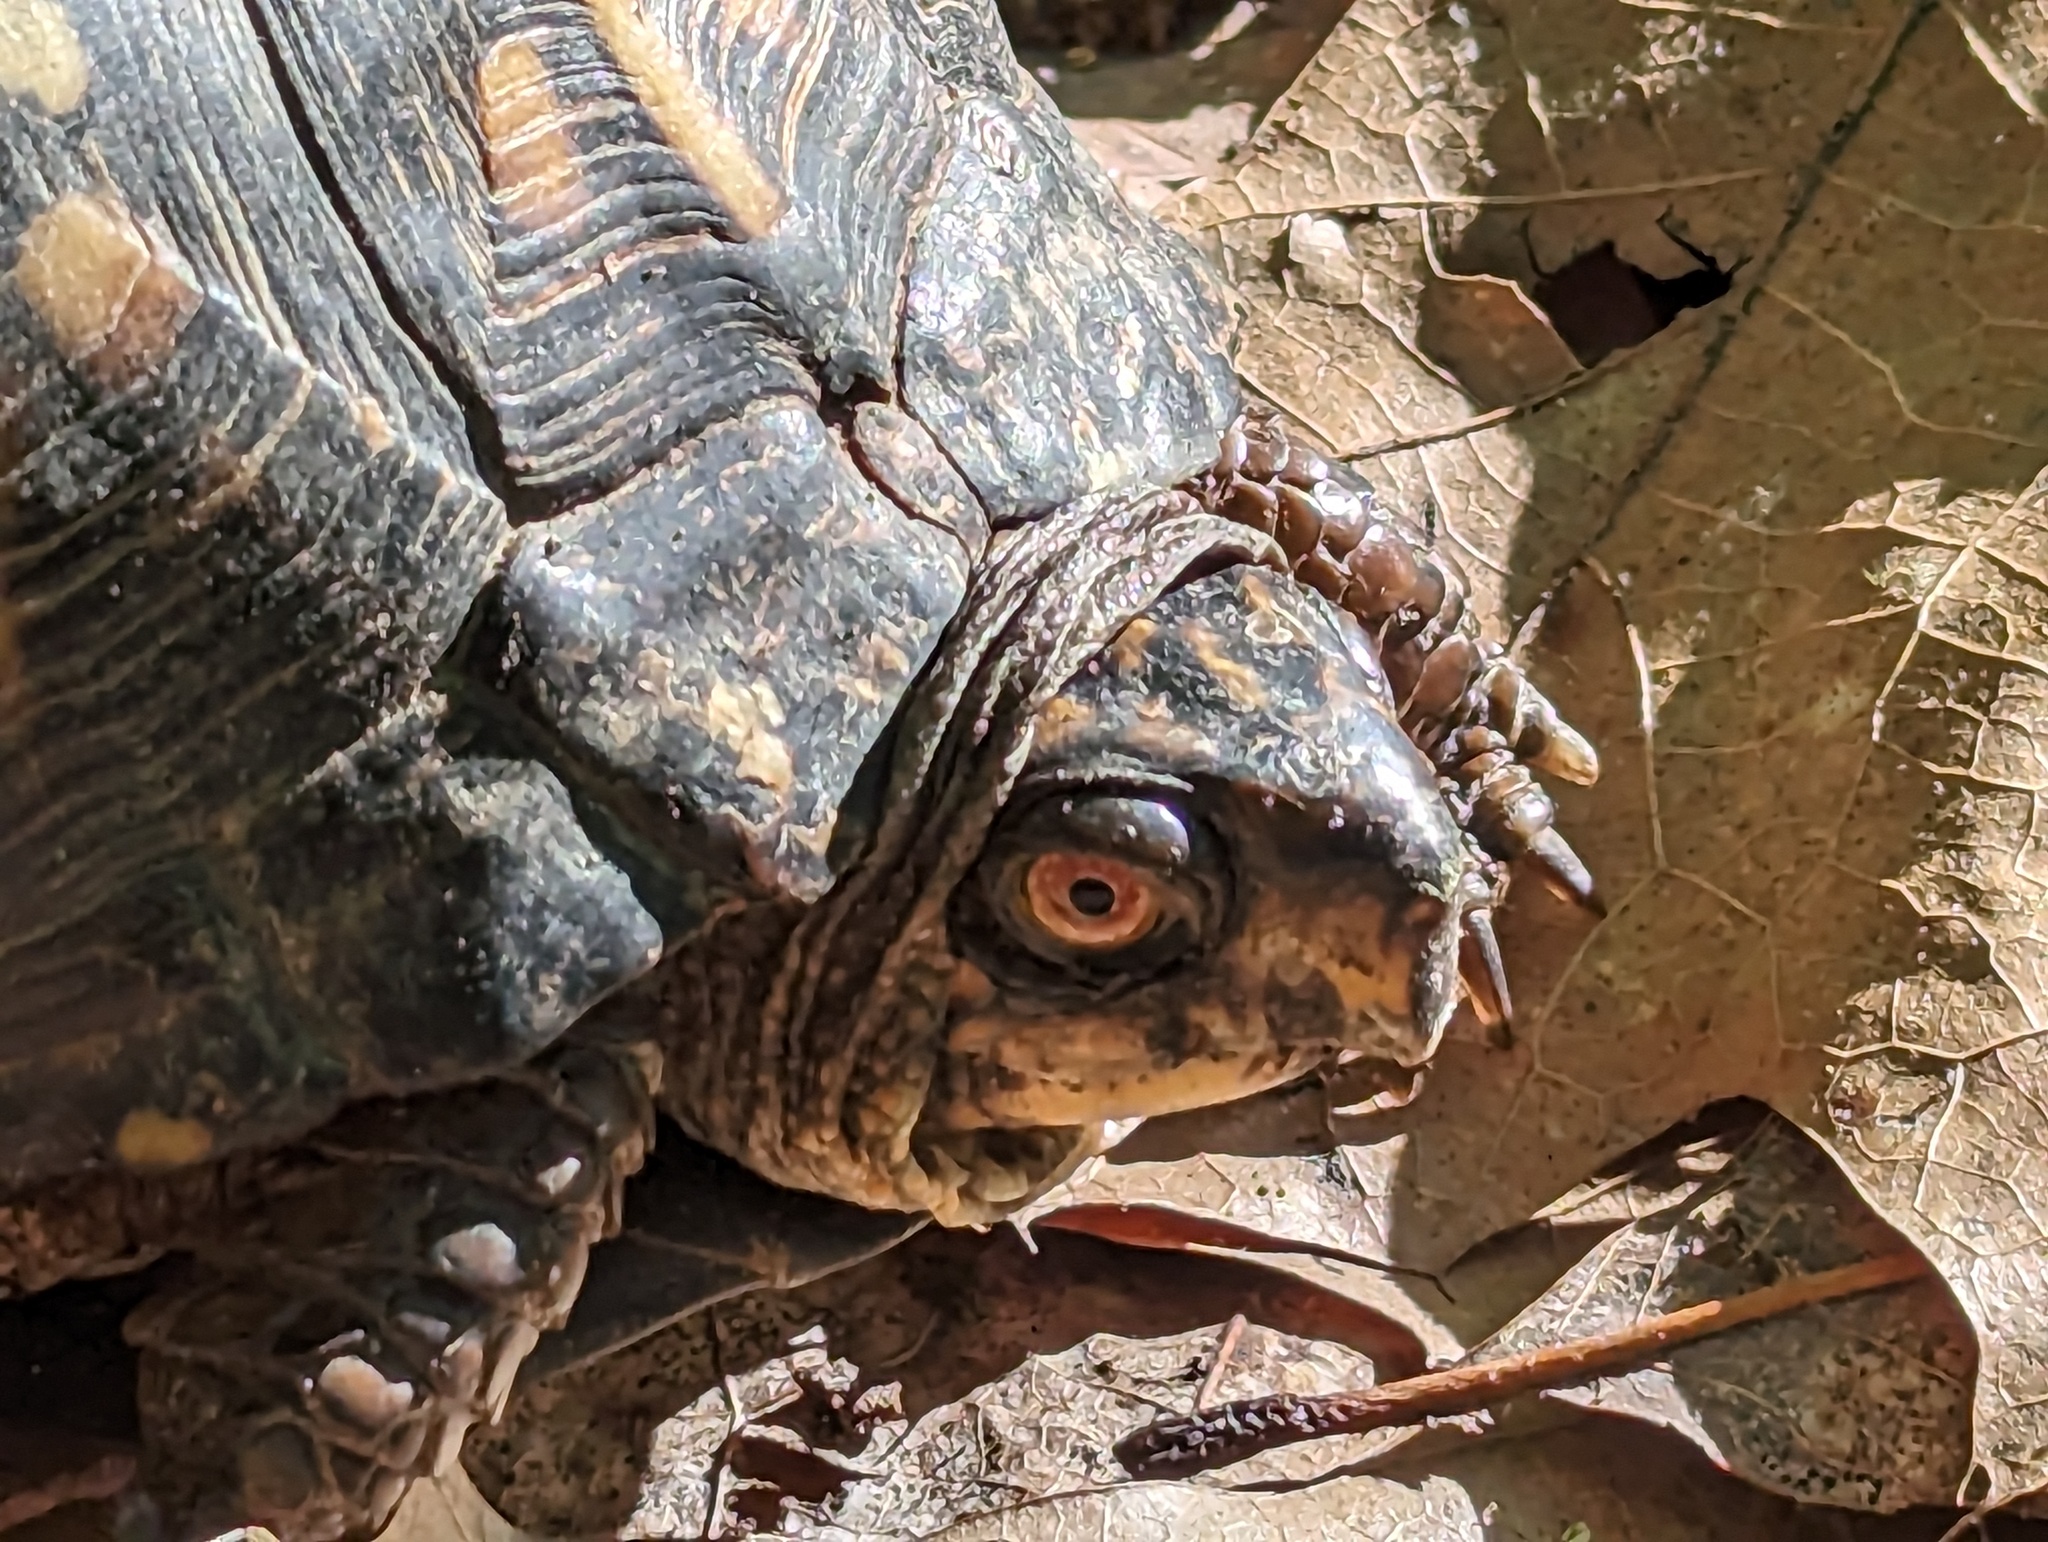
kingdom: Animalia
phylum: Chordata
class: Testudines
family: Emydidae
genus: Terrapene
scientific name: Terrapene carolina
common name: Common box turtle
